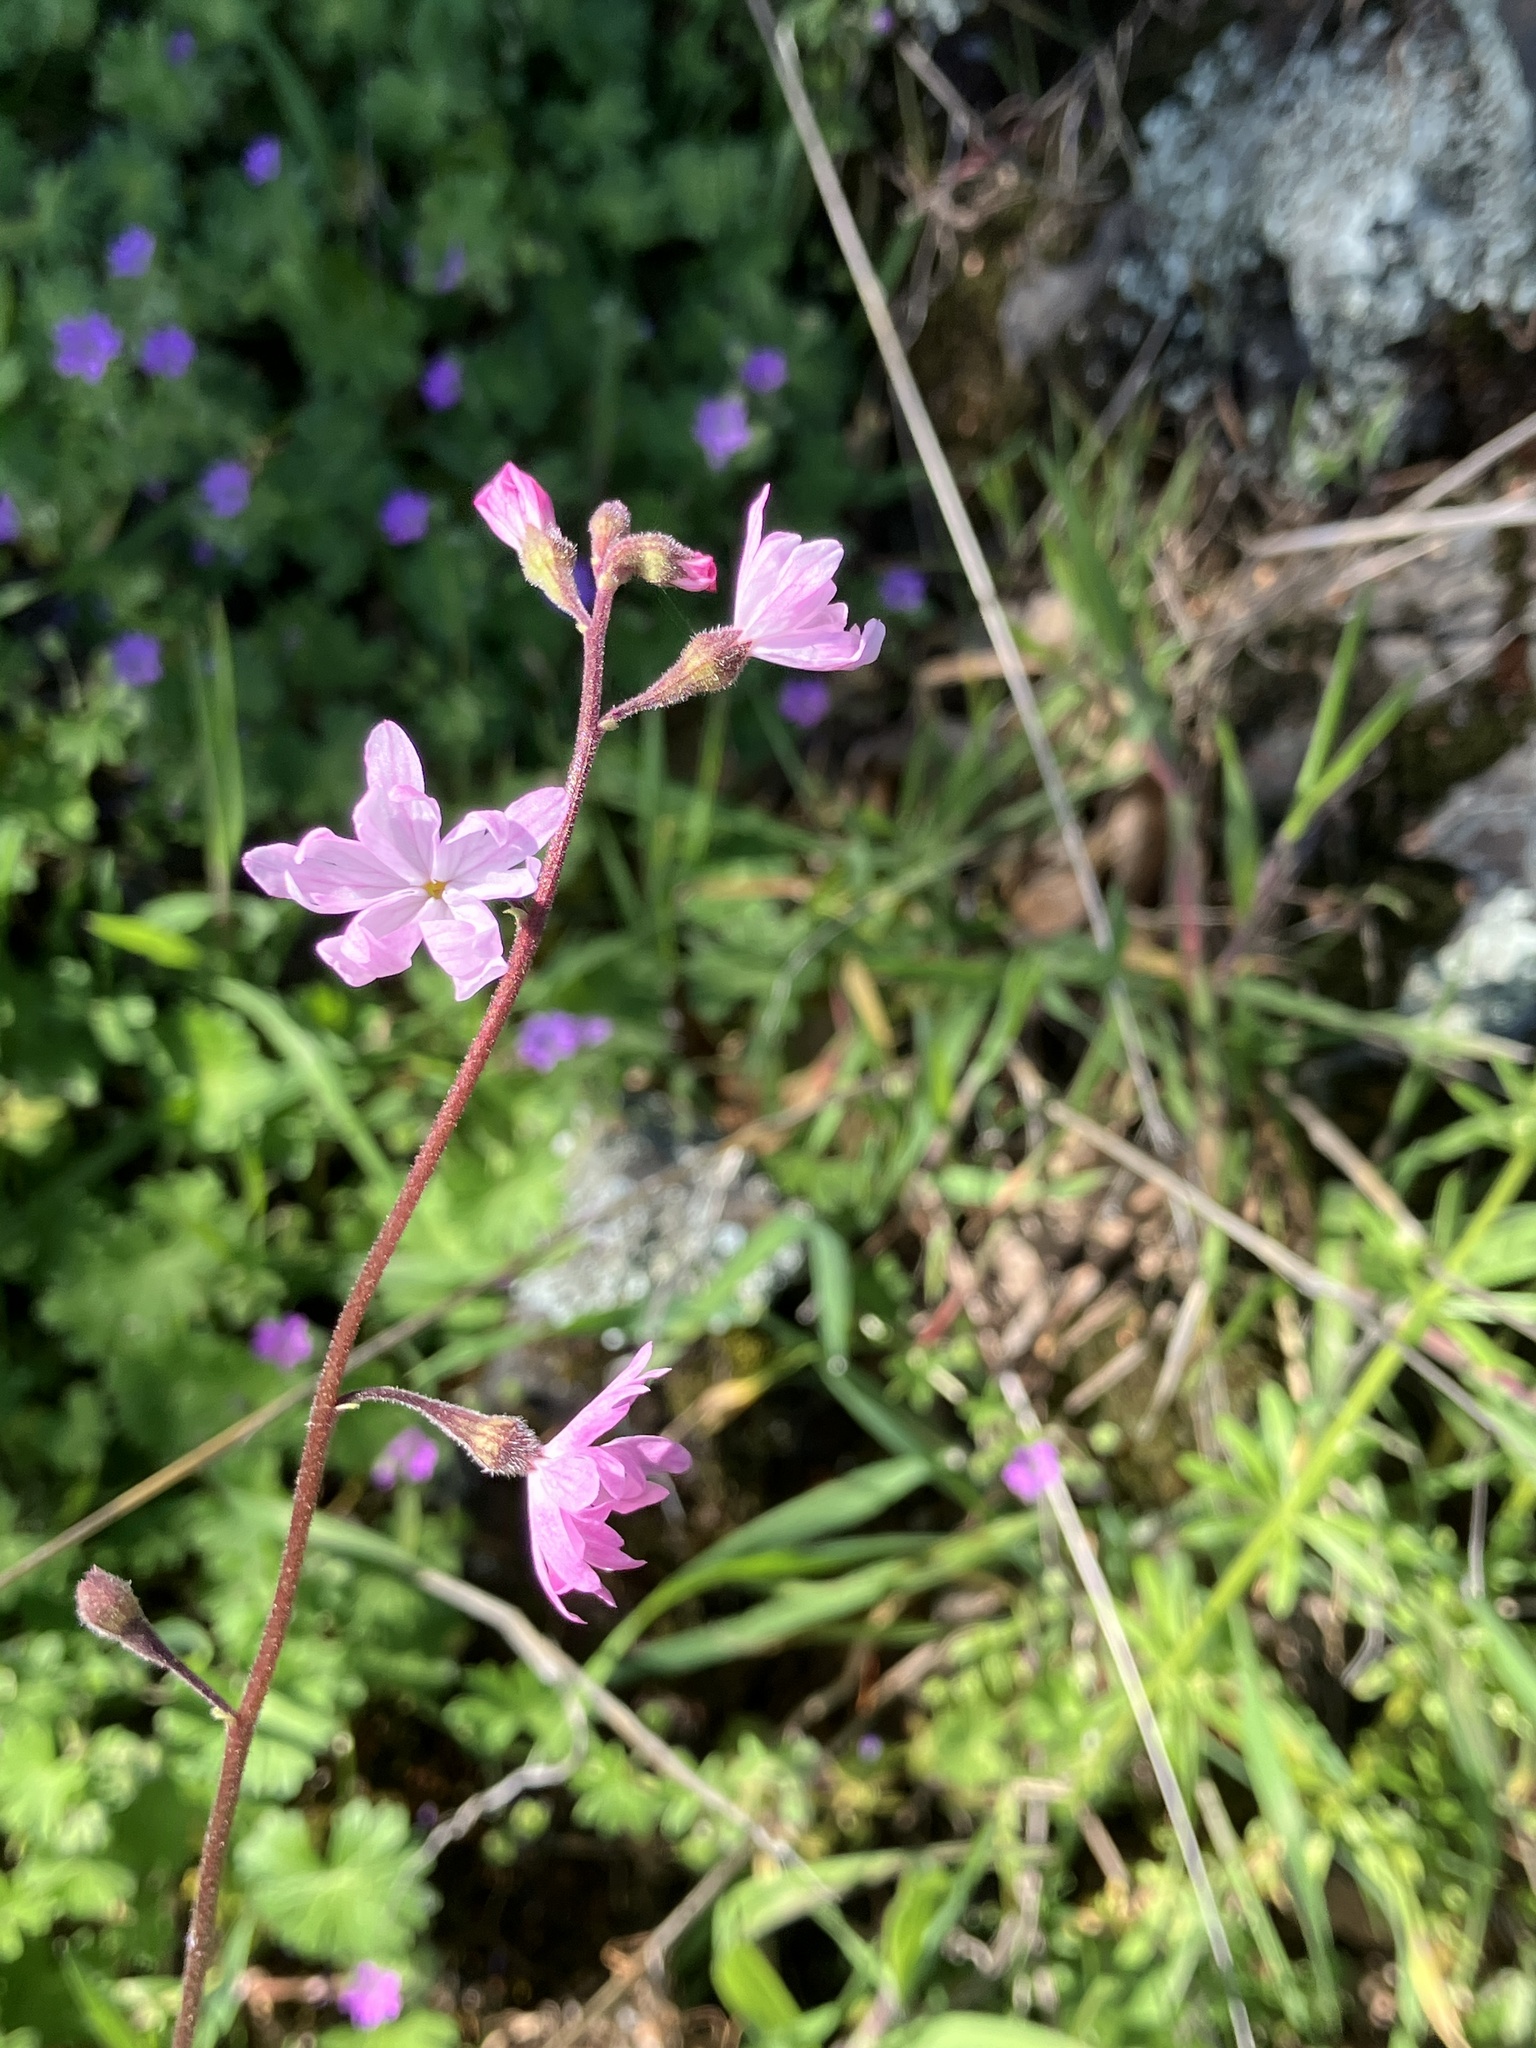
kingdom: Plantae
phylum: Tracheophyta
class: Magnoliopsida
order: Saxifragales
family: Saxifragaceae
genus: Lithophragma
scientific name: Lithophragma trifoliatum
